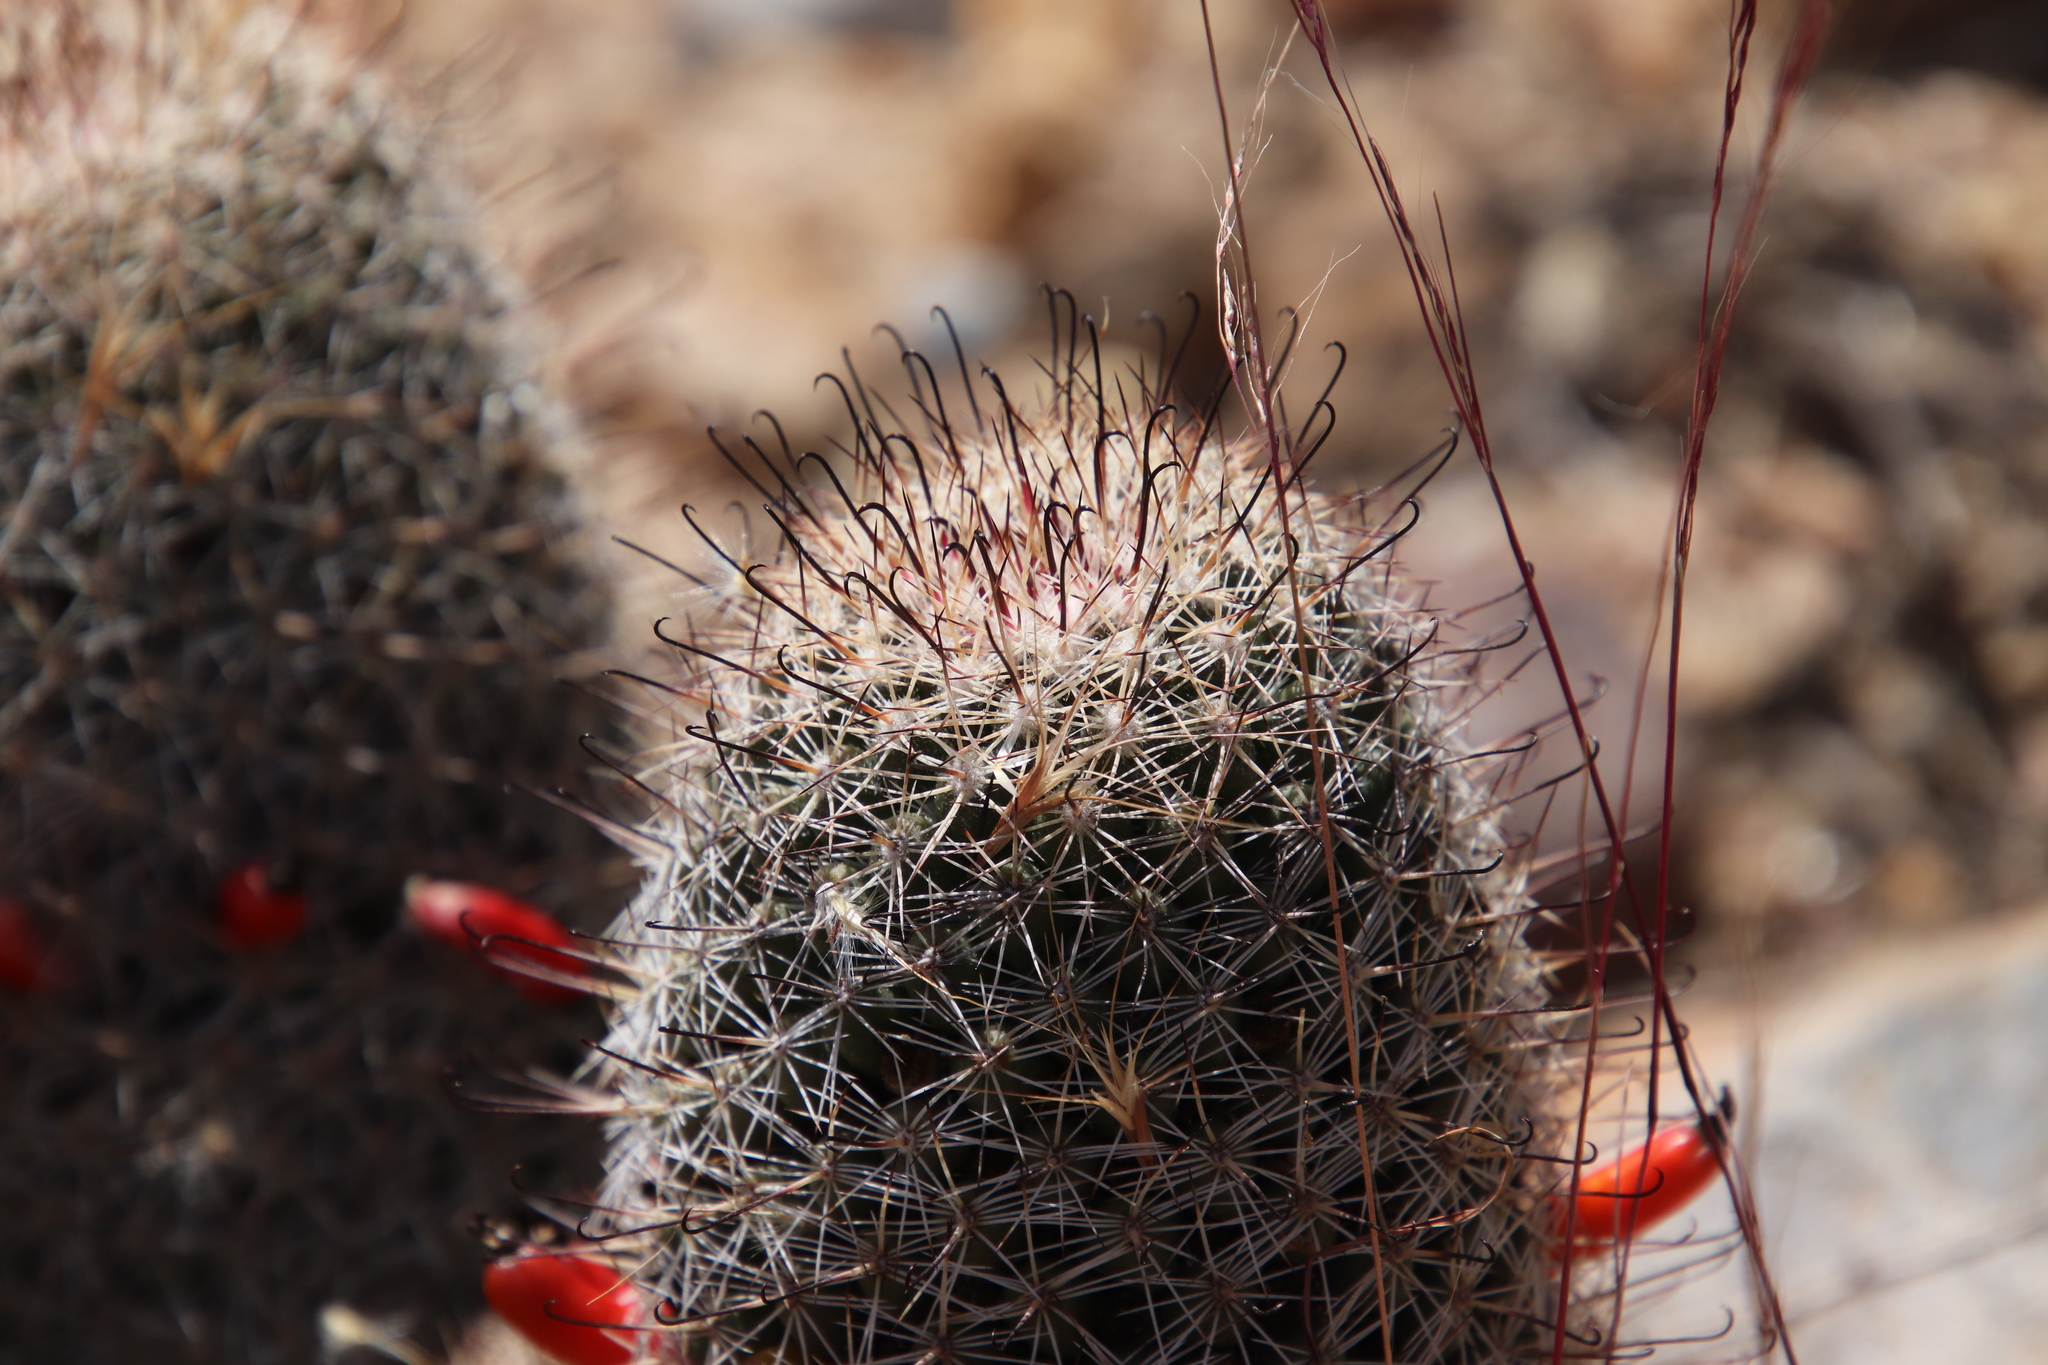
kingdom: Plantae
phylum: Tracheophyta
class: Magnoliopsida
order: Caryophyllales
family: Cactaceae
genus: Cochemiea
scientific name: Cochemiea dioica
